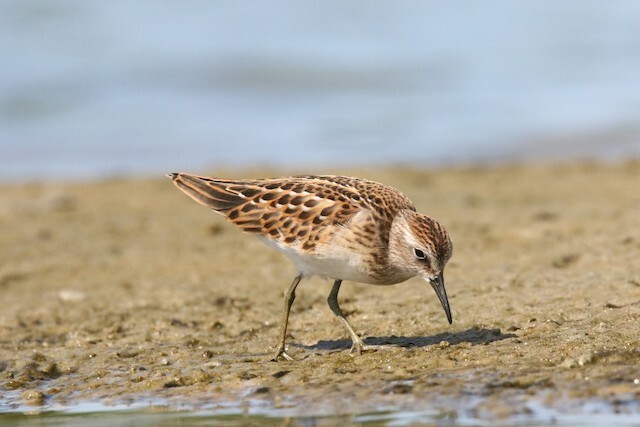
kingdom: Animalia
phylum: Chordata
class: Aves
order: Charadriiformes
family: Scolopacidae
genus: Calidris
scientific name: Calidris minutilla
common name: Least sandpiper
